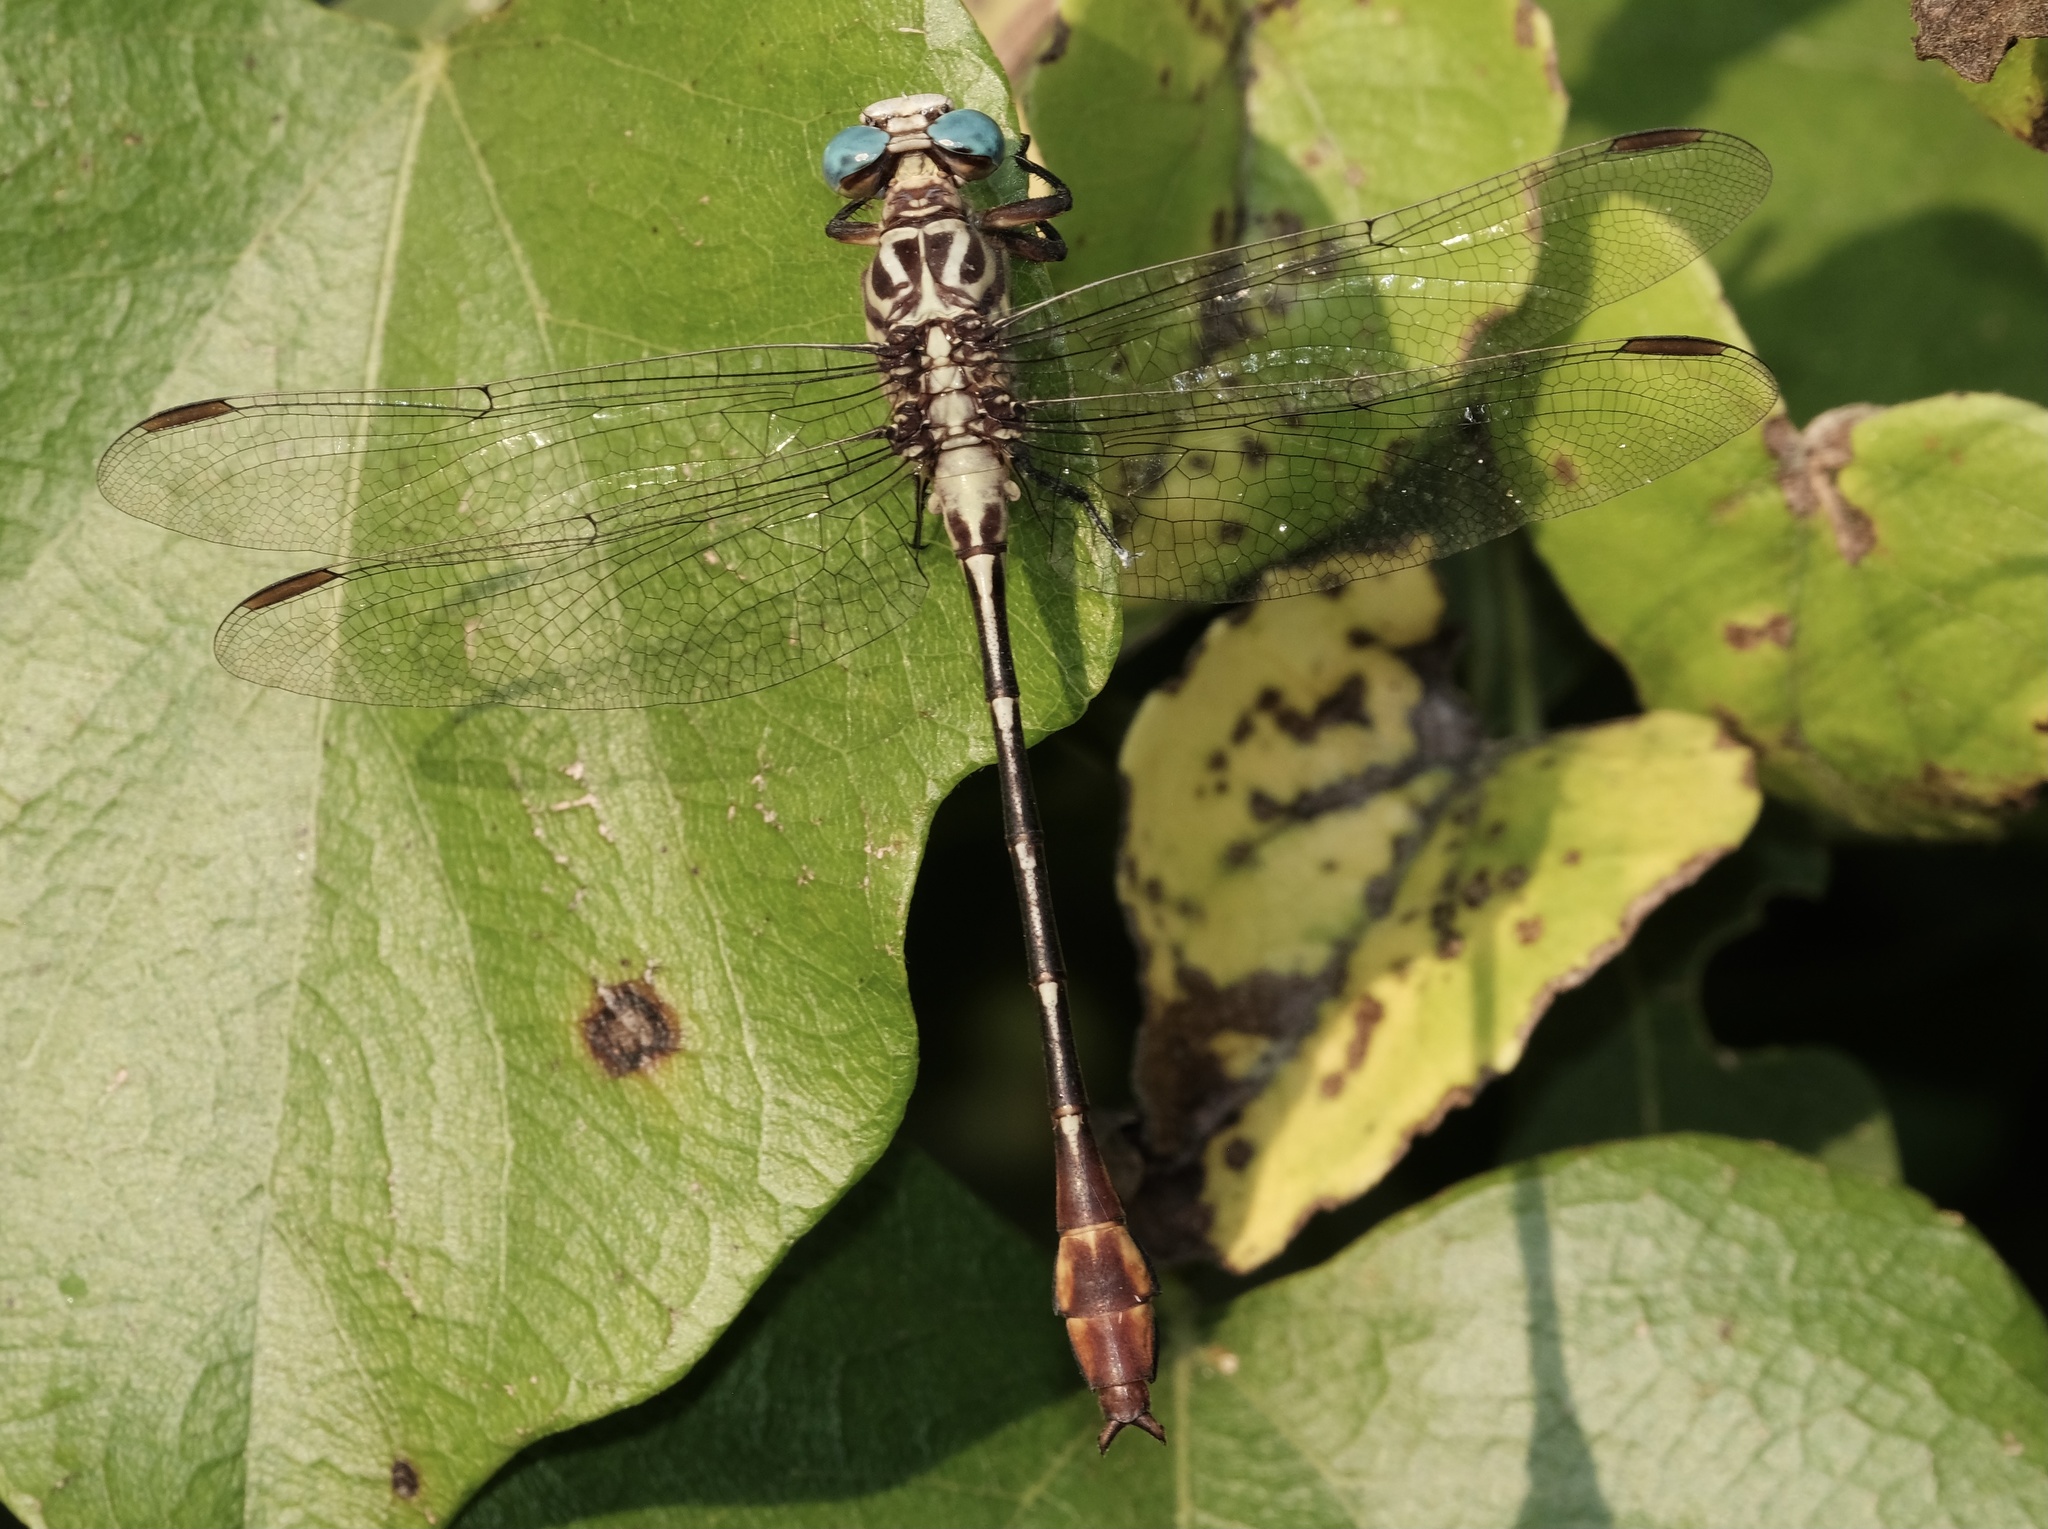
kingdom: Animalia
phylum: Arthropoda
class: Insecta
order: Odonata
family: Gomphidae
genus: Stylurus
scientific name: Stylurus plagiatus
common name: Russet-tipped clubtail
